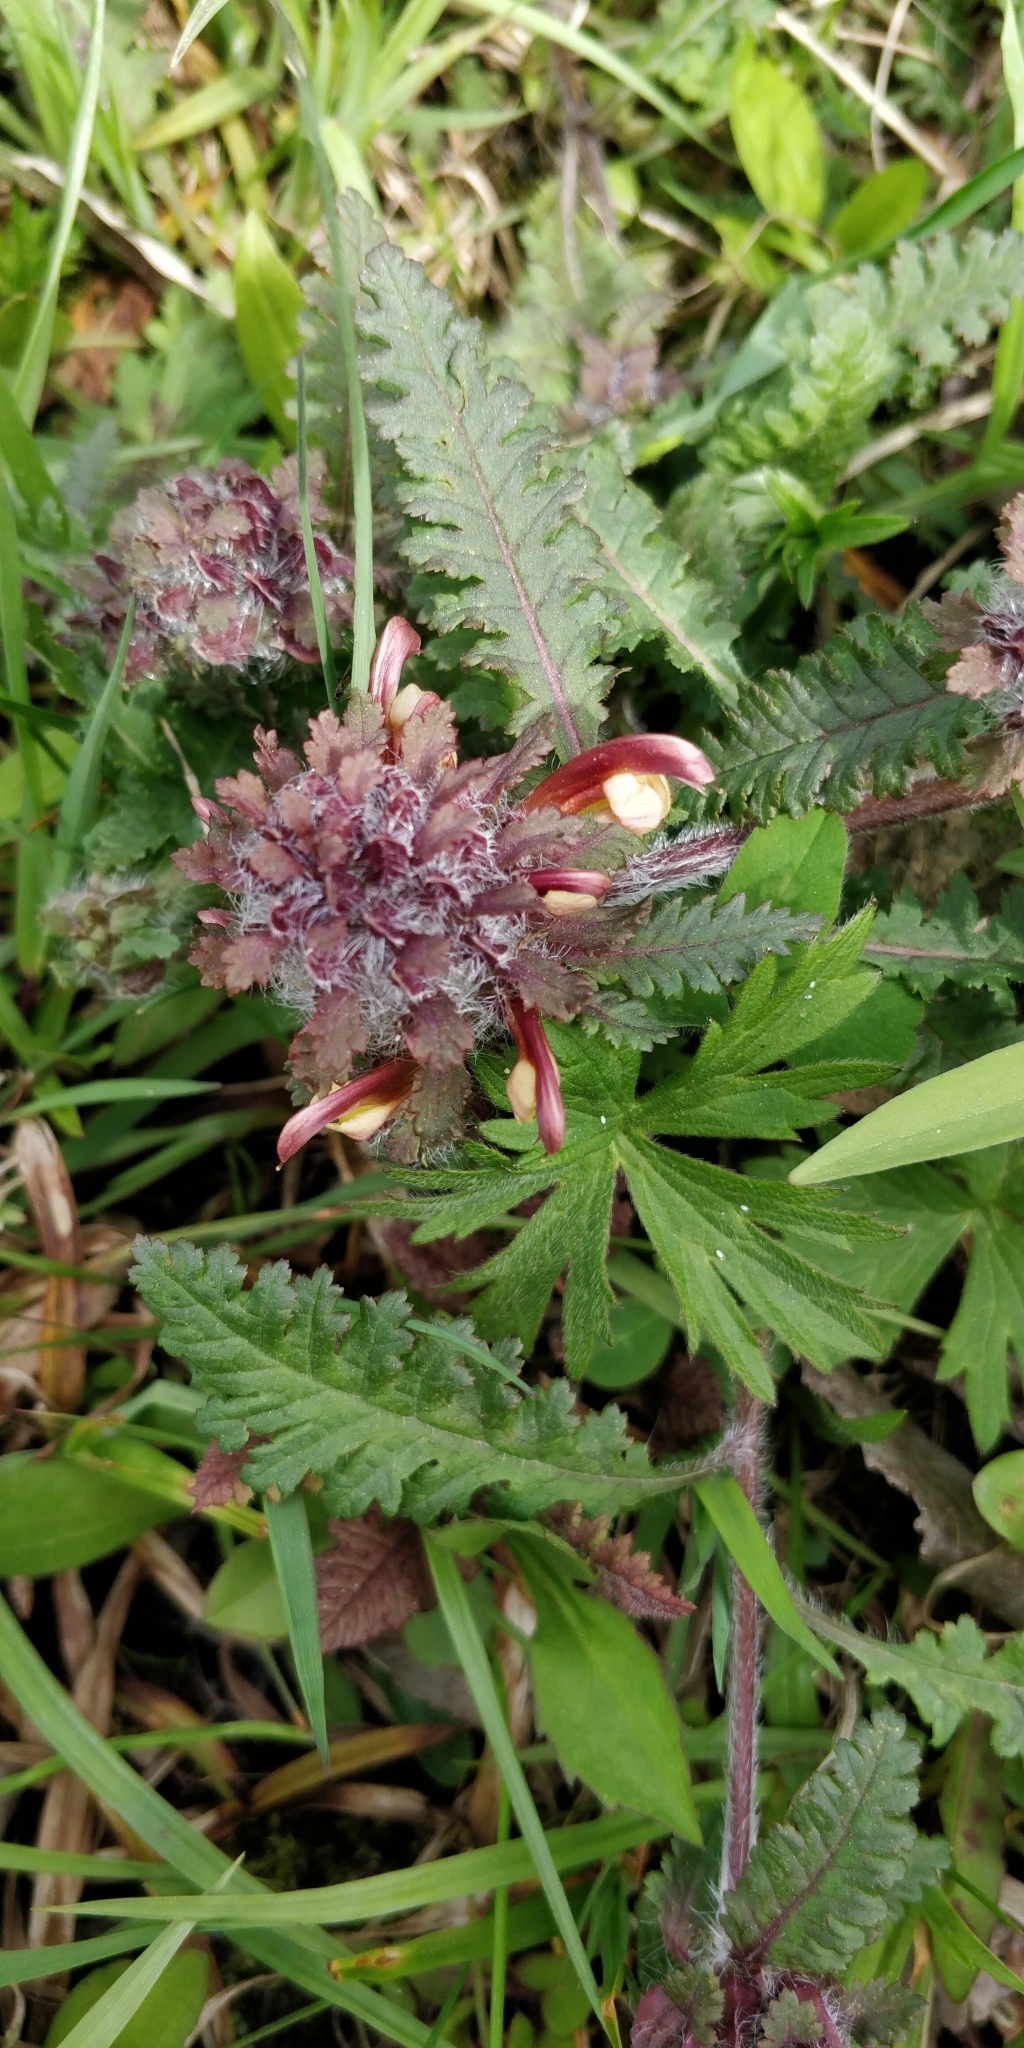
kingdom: Plantae
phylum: Tracheophyta
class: Magnoliopsida
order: Lamiales
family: Orobanchaceae
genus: Pedicularis
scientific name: Pedicularis canadensis
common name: Early lousewort
